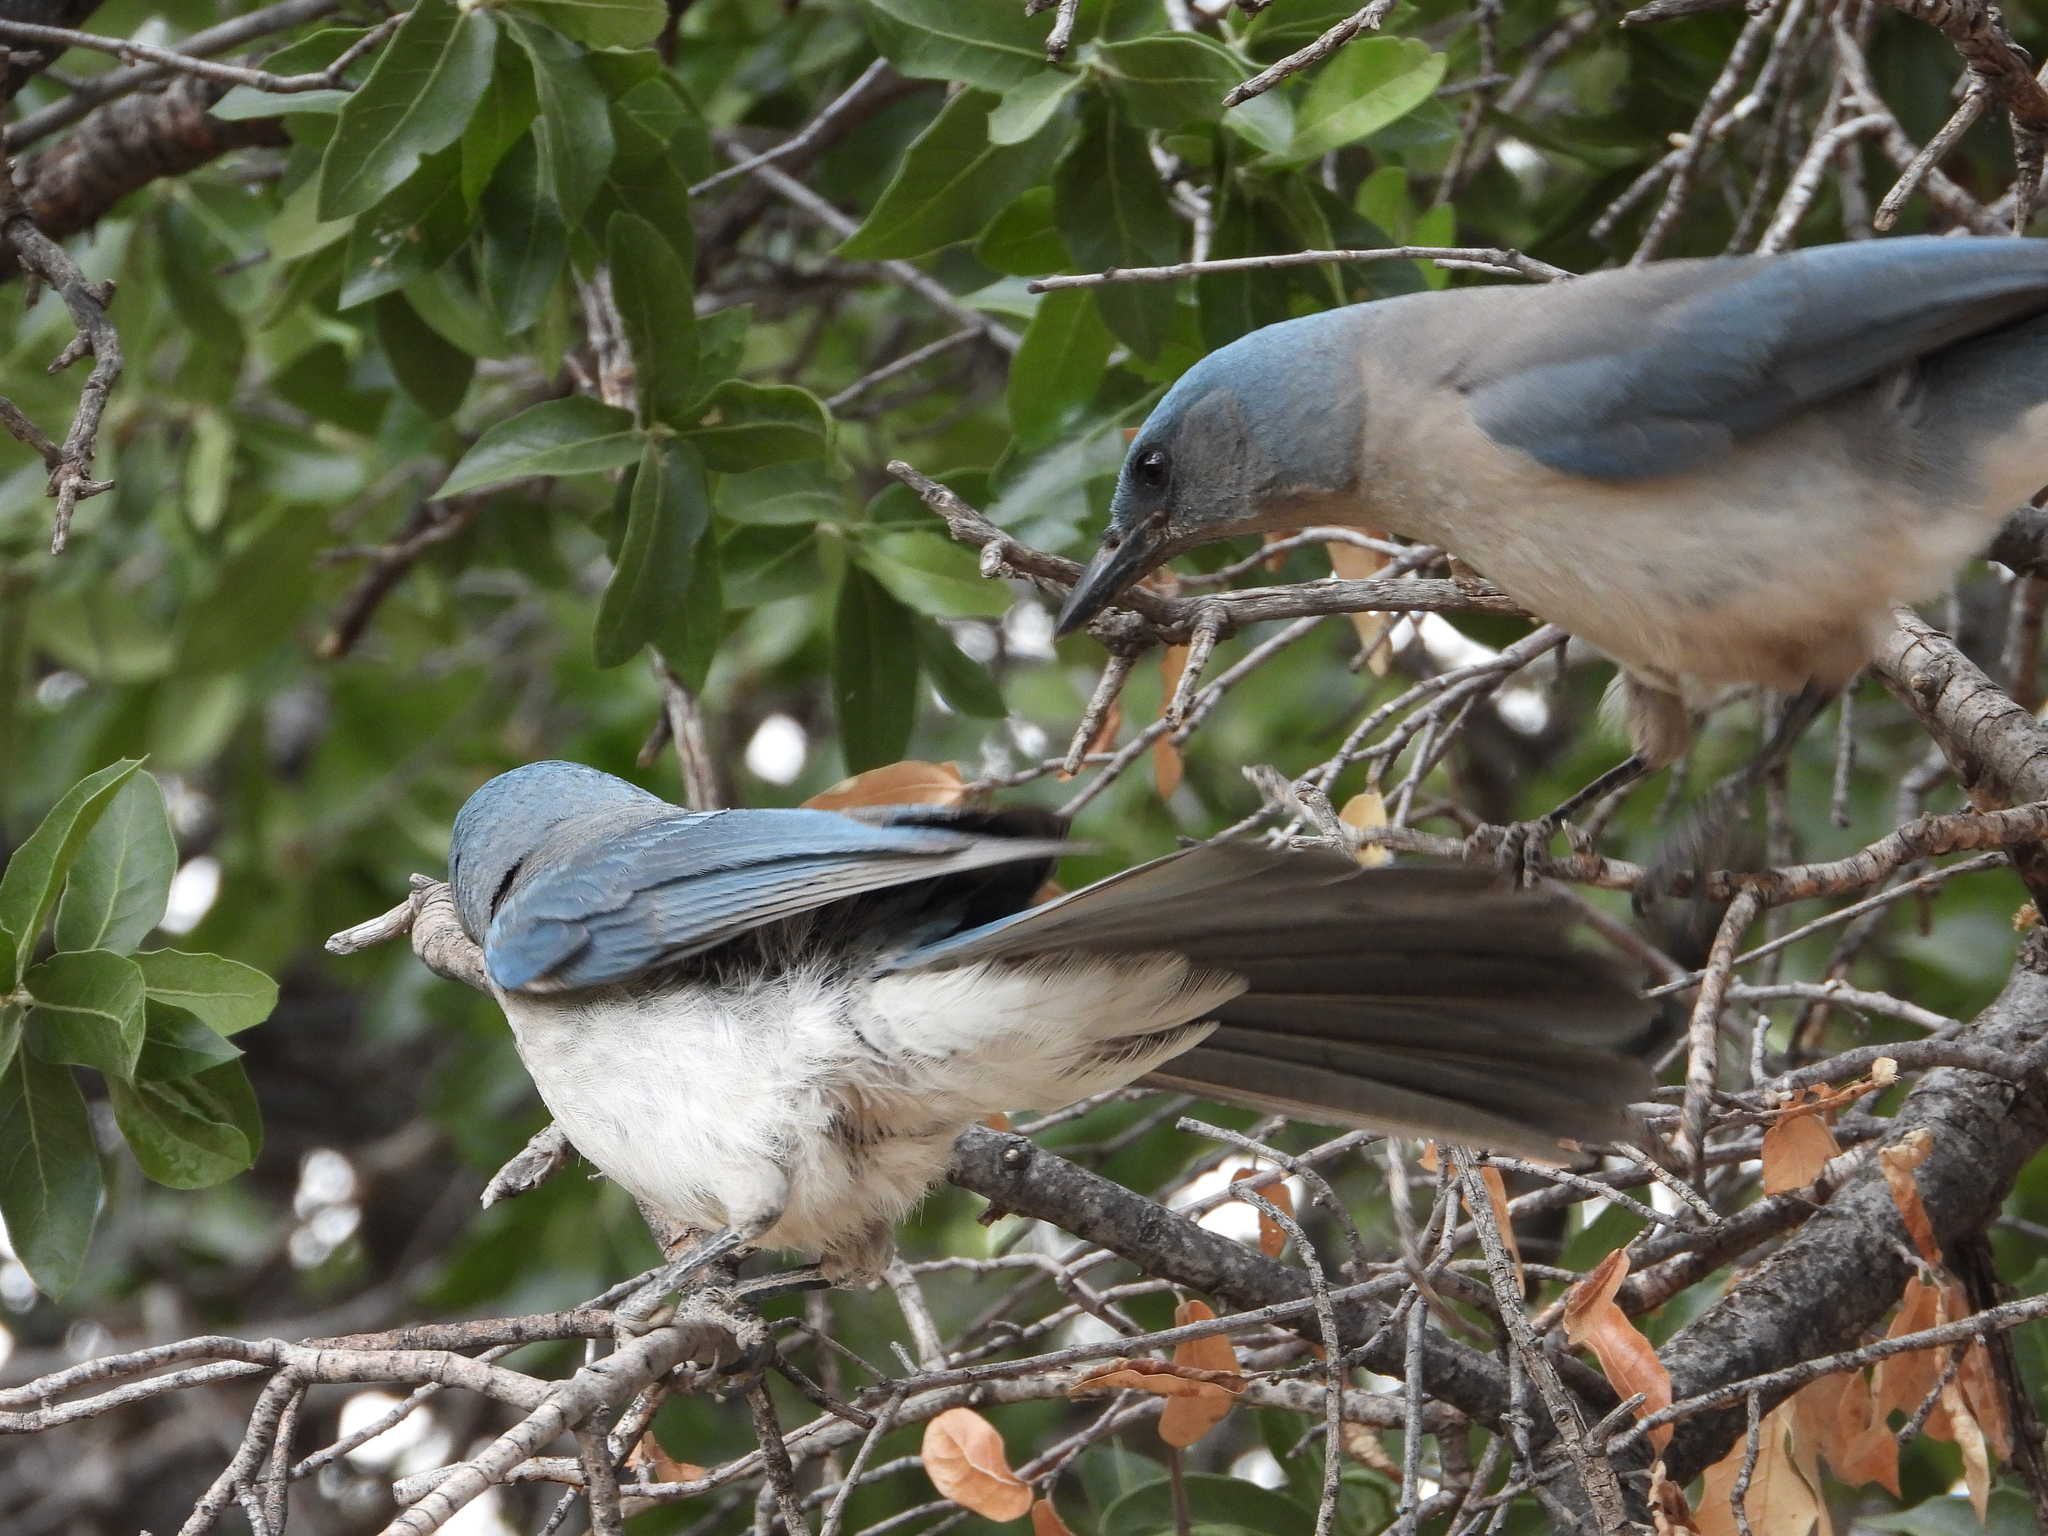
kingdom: Animalia
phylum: Chordata
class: Aves
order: Passeriformes
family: Corvidae
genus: Aphelocoma
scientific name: Aphelocoma wollweberi
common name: Mexican jay
